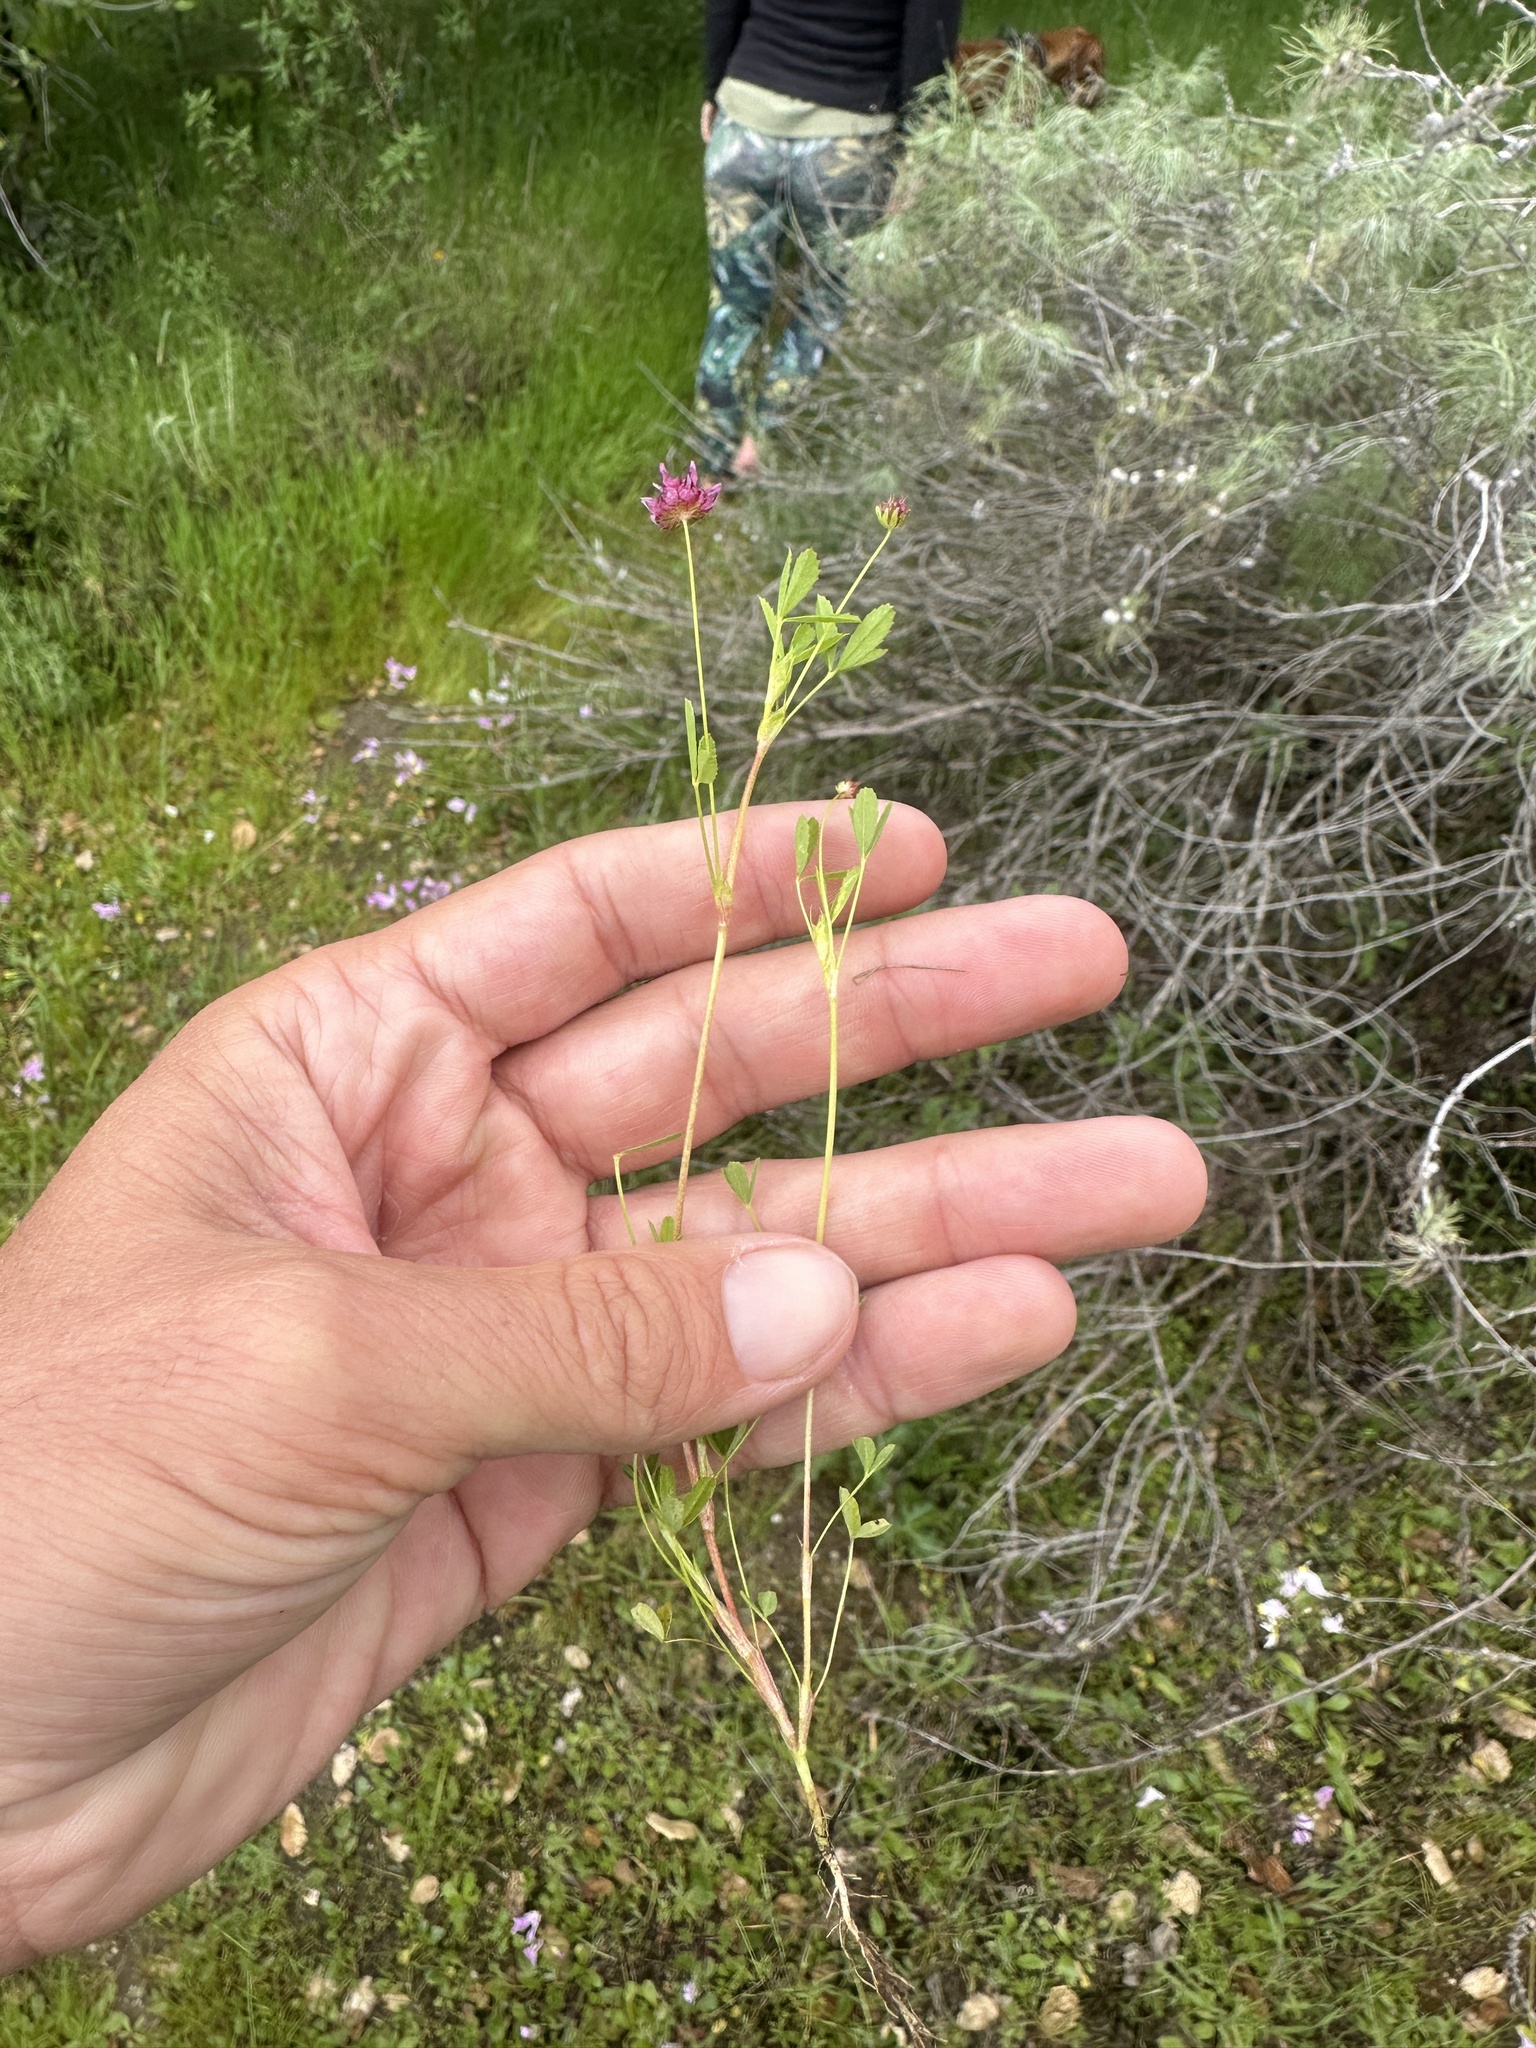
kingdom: Plantae
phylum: Tracheophyta
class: Magnoliopsida
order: Fabales
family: Fabaceae
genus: Trifolium
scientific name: Trifolium depauperatum
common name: Poverty clover
